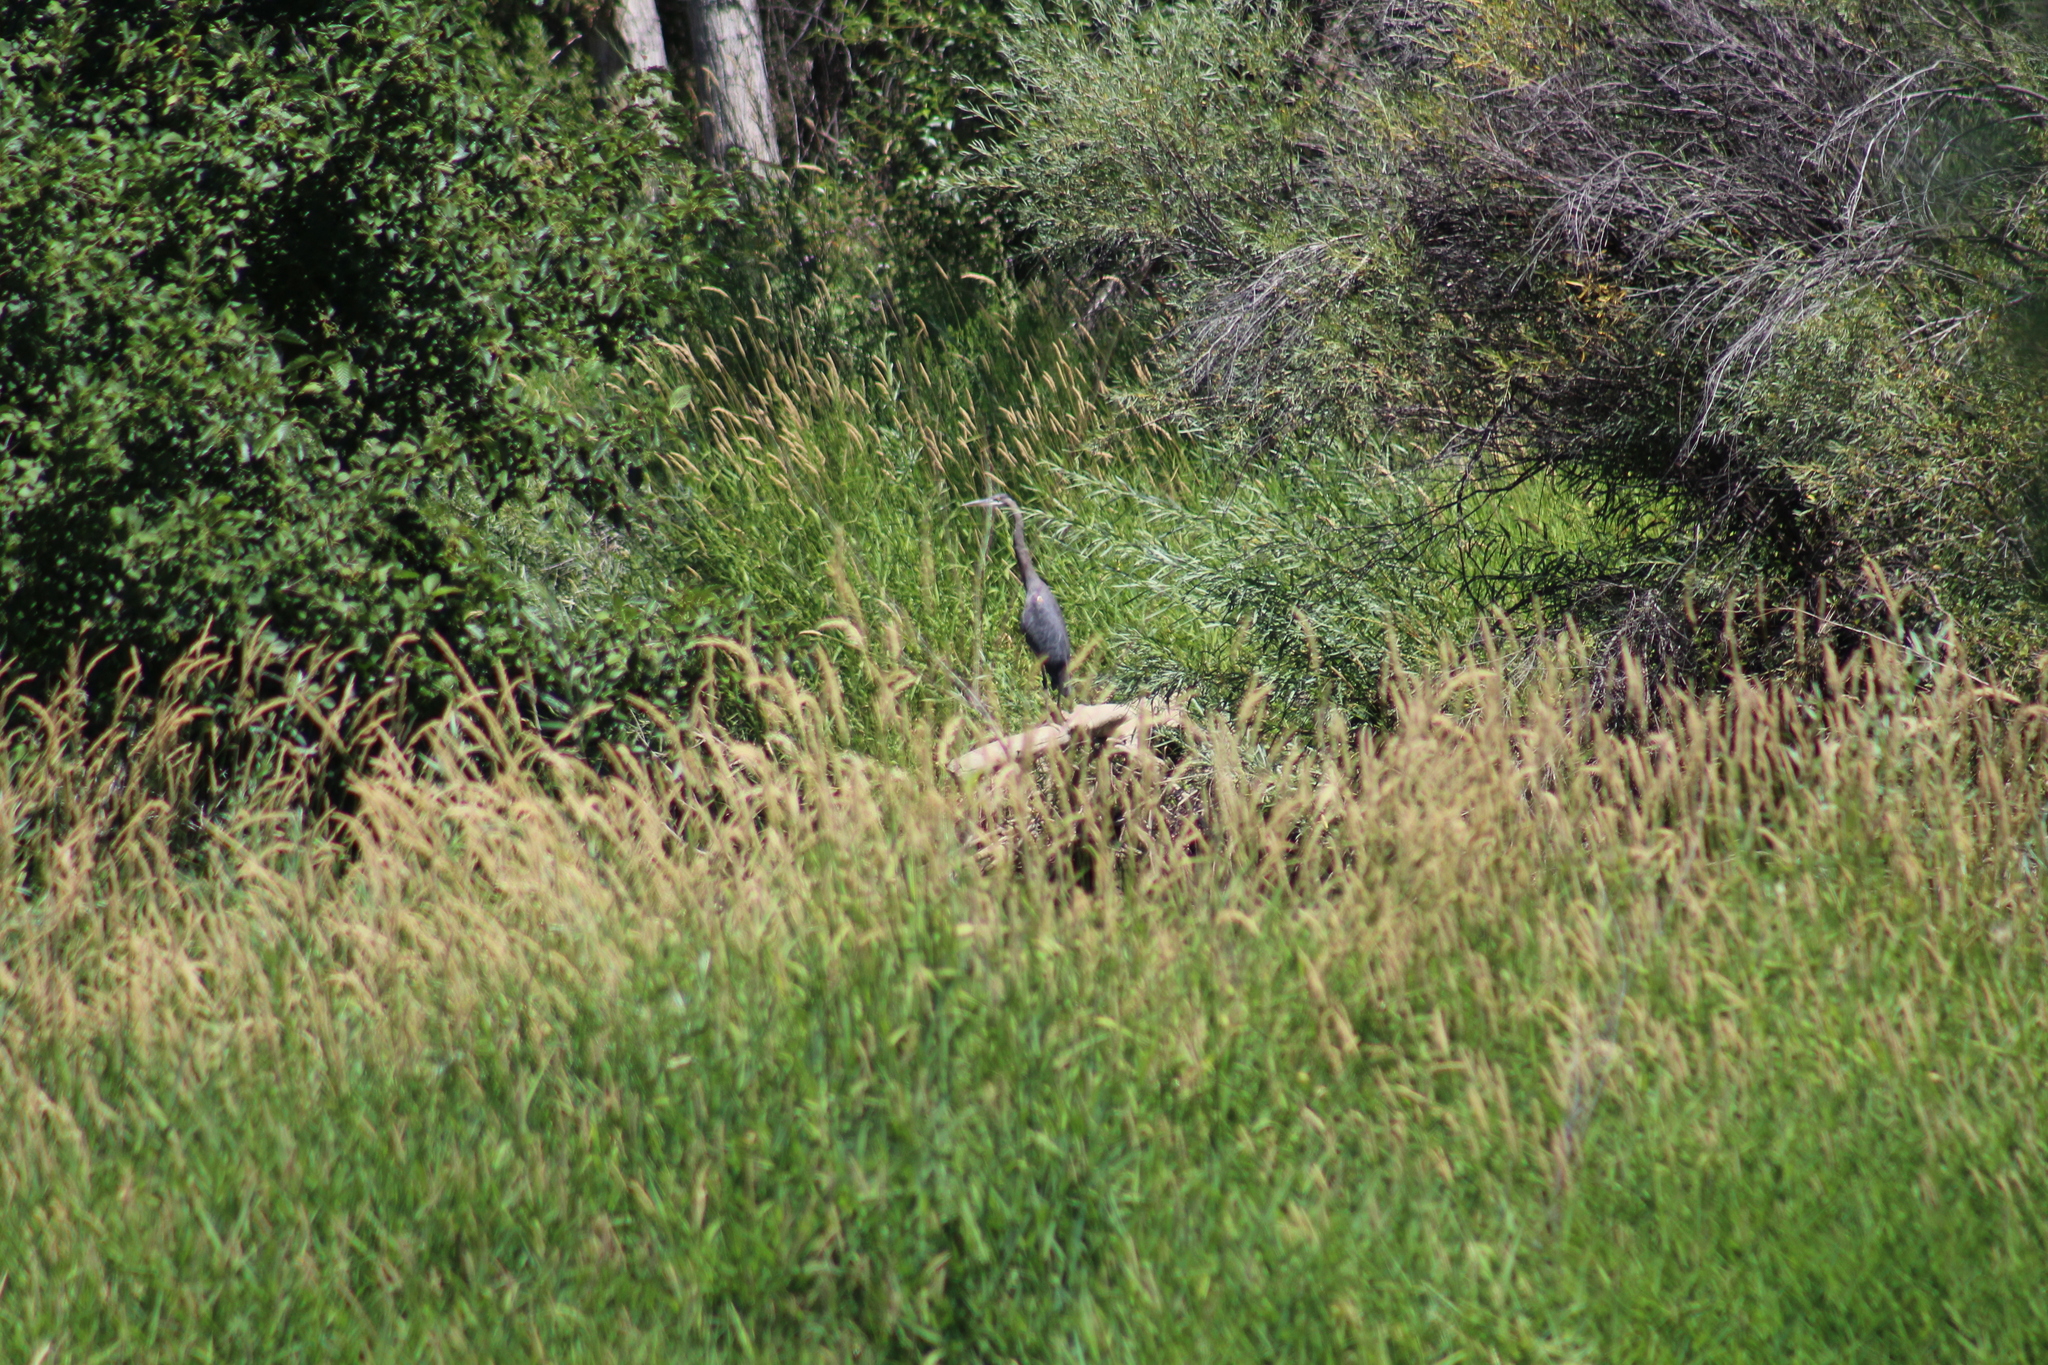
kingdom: Animalia
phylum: Chordata
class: Aves
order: Pelecaniformes
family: Ardeidae
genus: Ardea
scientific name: Ardea herodias
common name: Great blue heron
